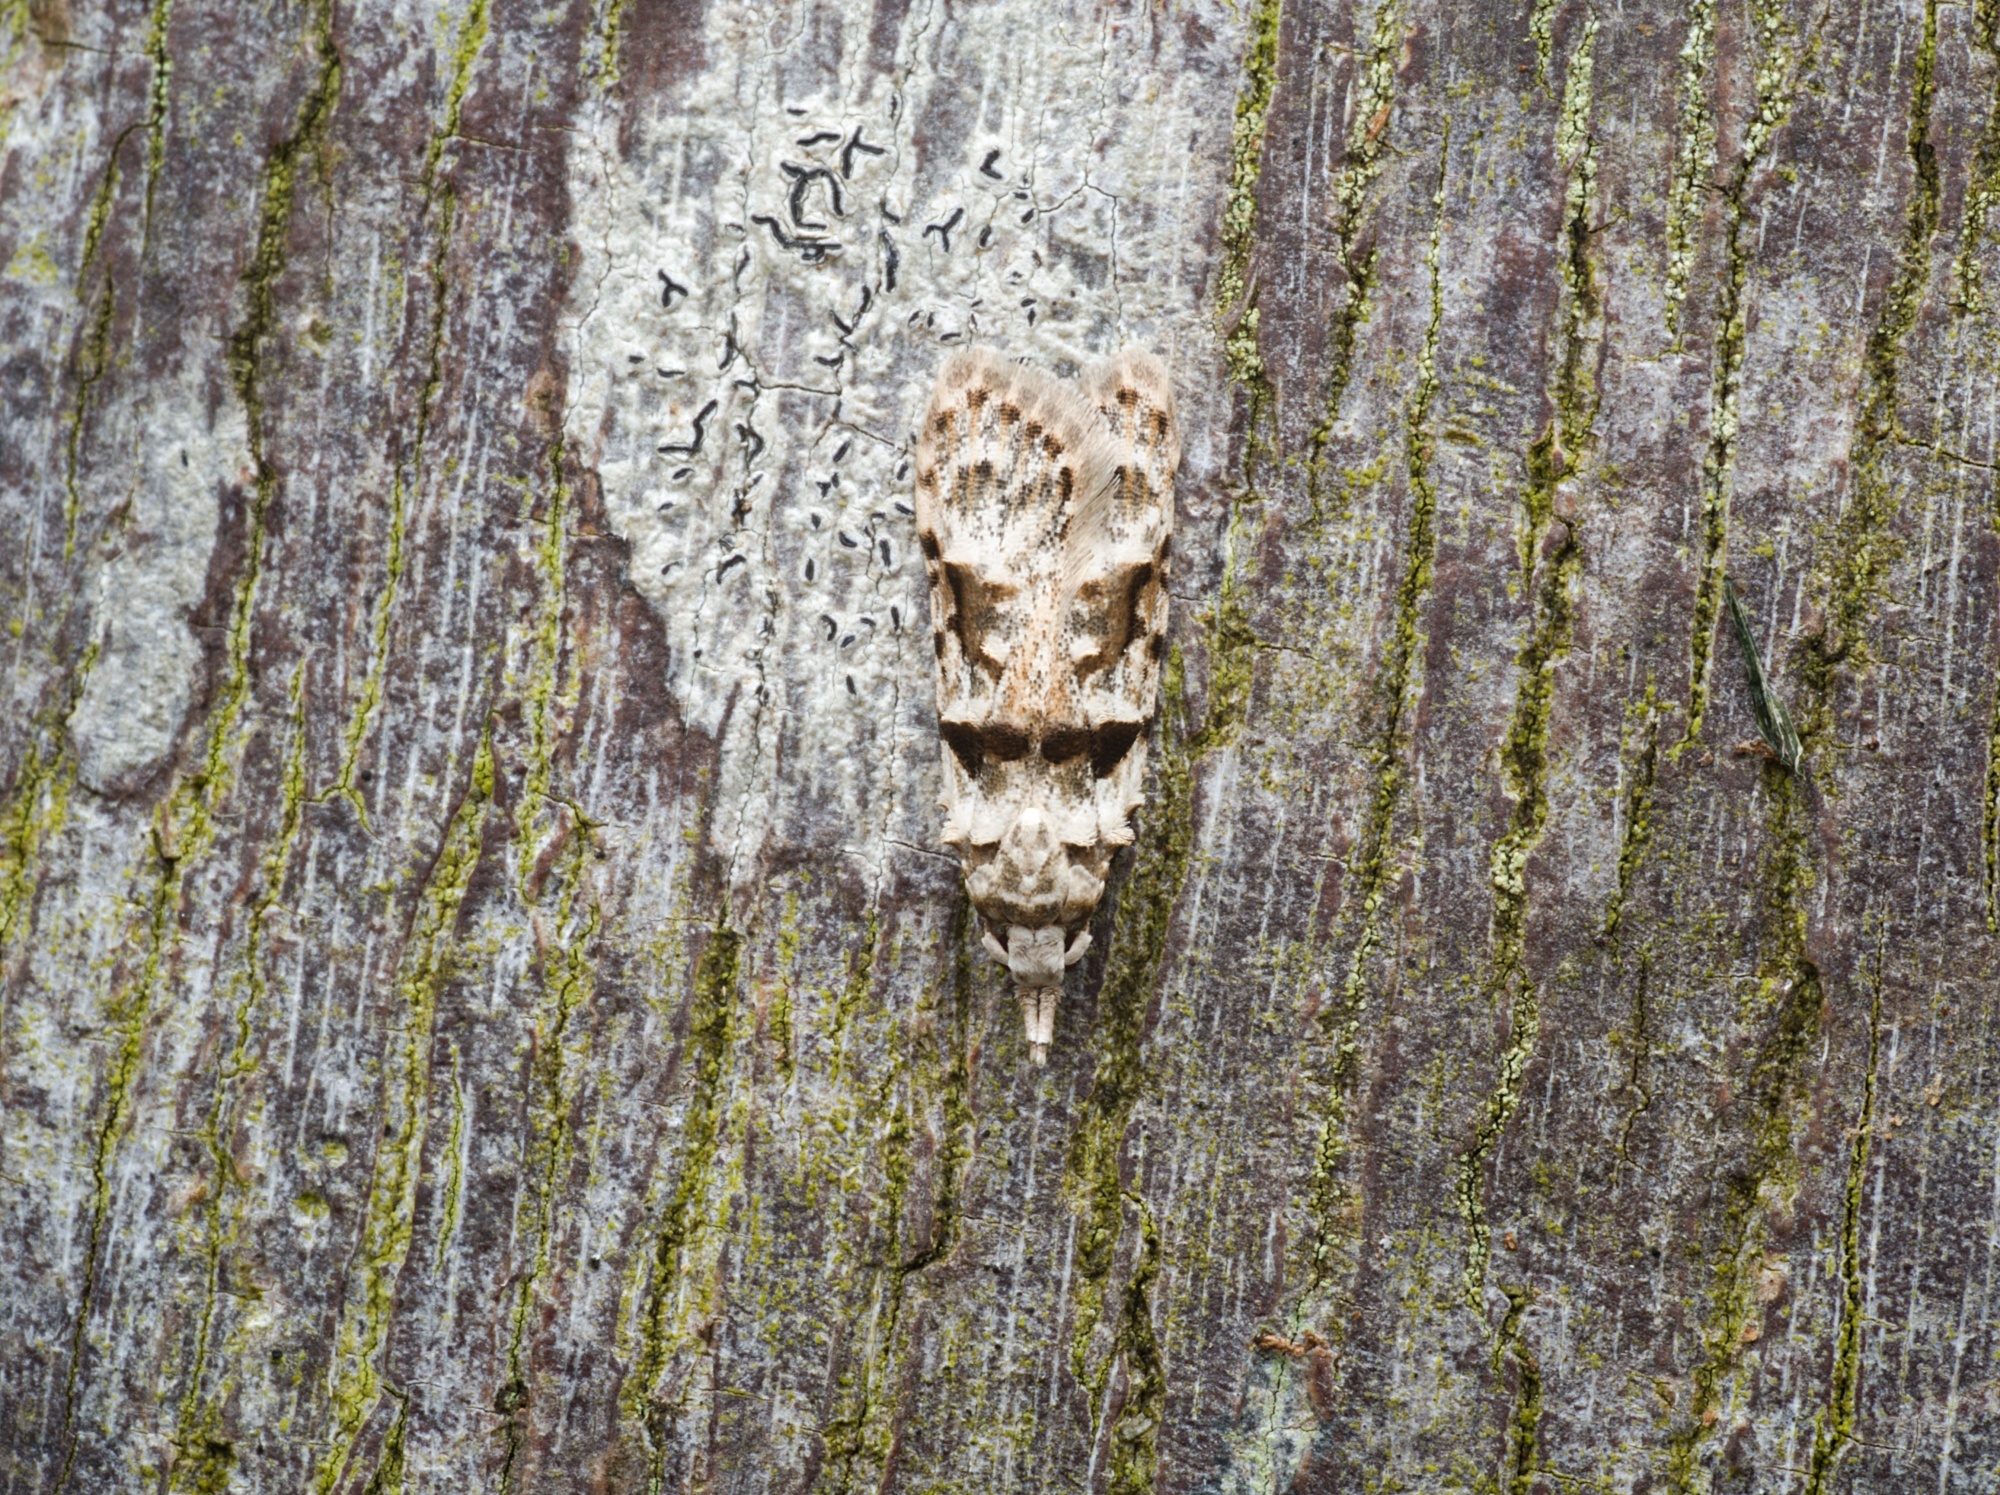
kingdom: Animalia
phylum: Arthropoda
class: Insecta
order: Lepidoptera
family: Carposinidae
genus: Coscinoptycha
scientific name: Coscinoptycha improbana
